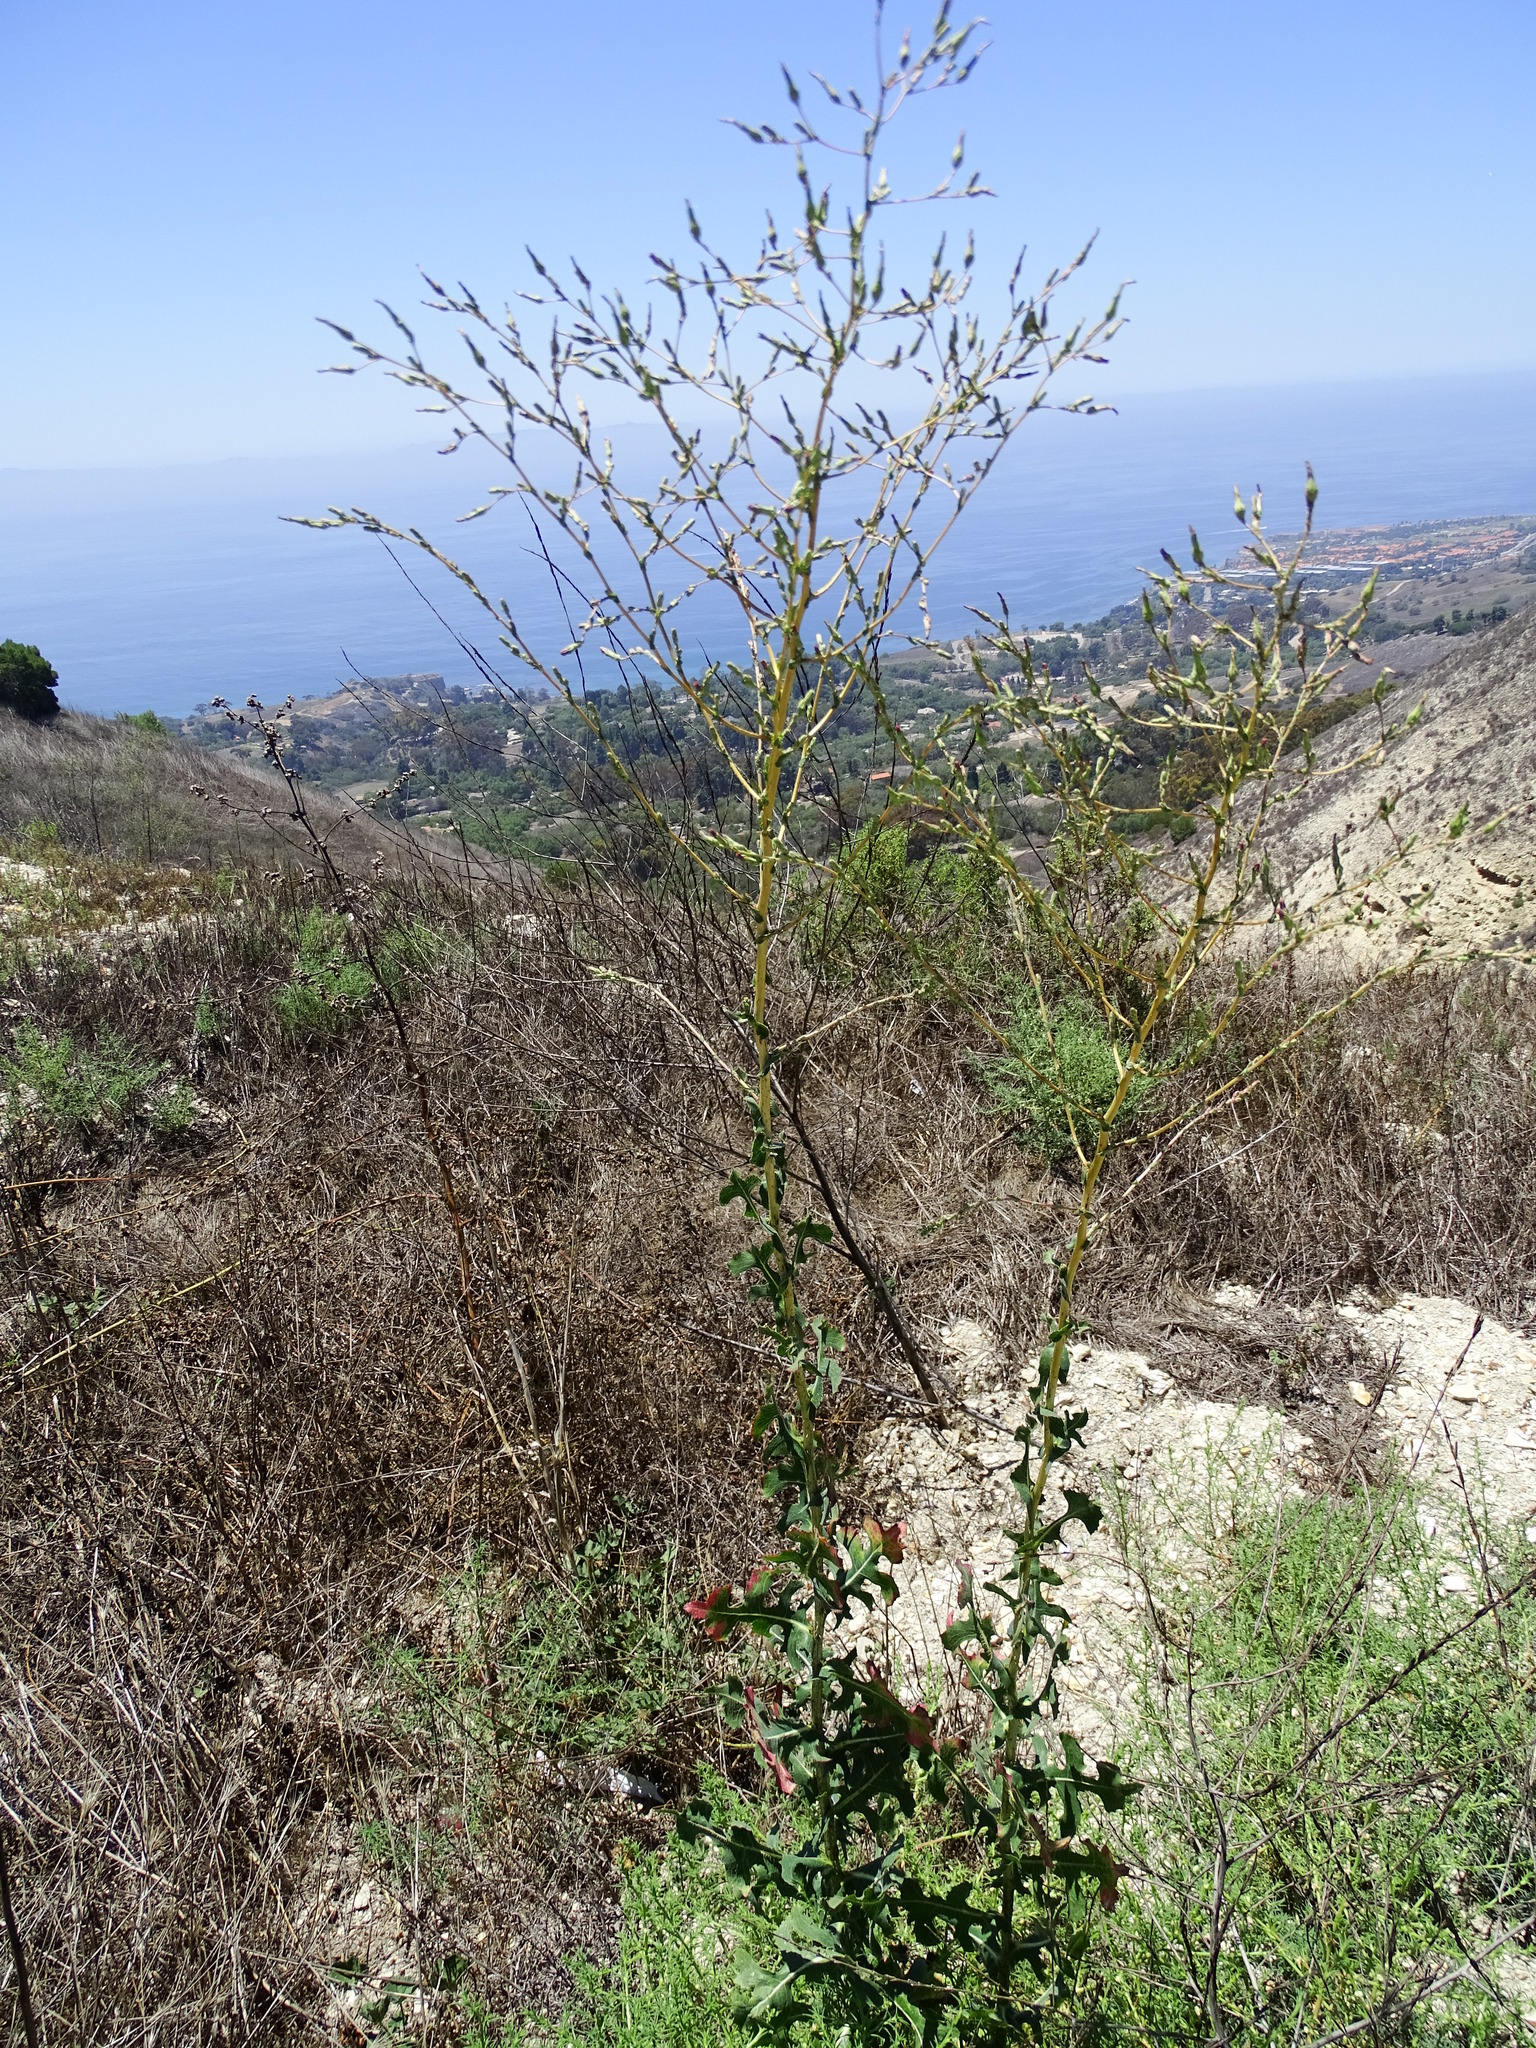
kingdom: Plantae
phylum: Tracheophyta
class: Magnoliopsida
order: Asterales
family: Asteraceae
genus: Lactuca
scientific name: Lactuca serriola
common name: Prickly lettuce
